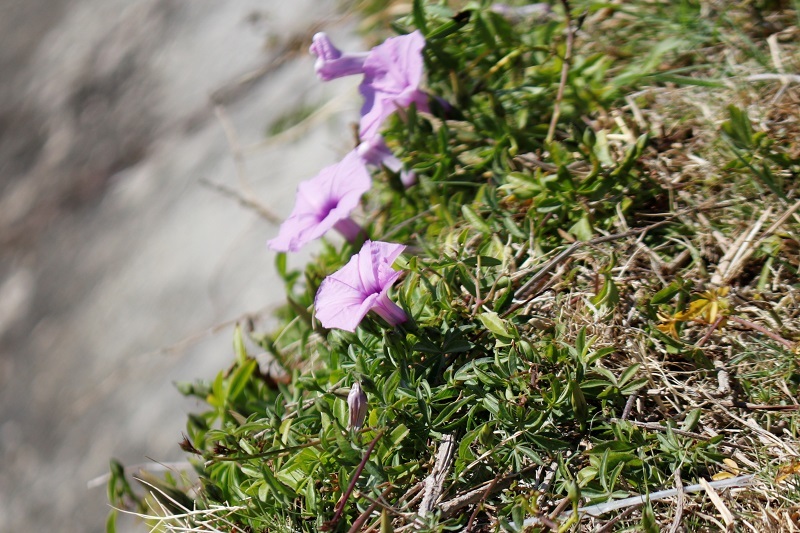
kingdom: Plantae
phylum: Tracheophyta
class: Magnoliopsida
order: Solanales
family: Convolvulaceae
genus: Ipomoea
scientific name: Ipomoea cairica
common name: Mile a minute vine
